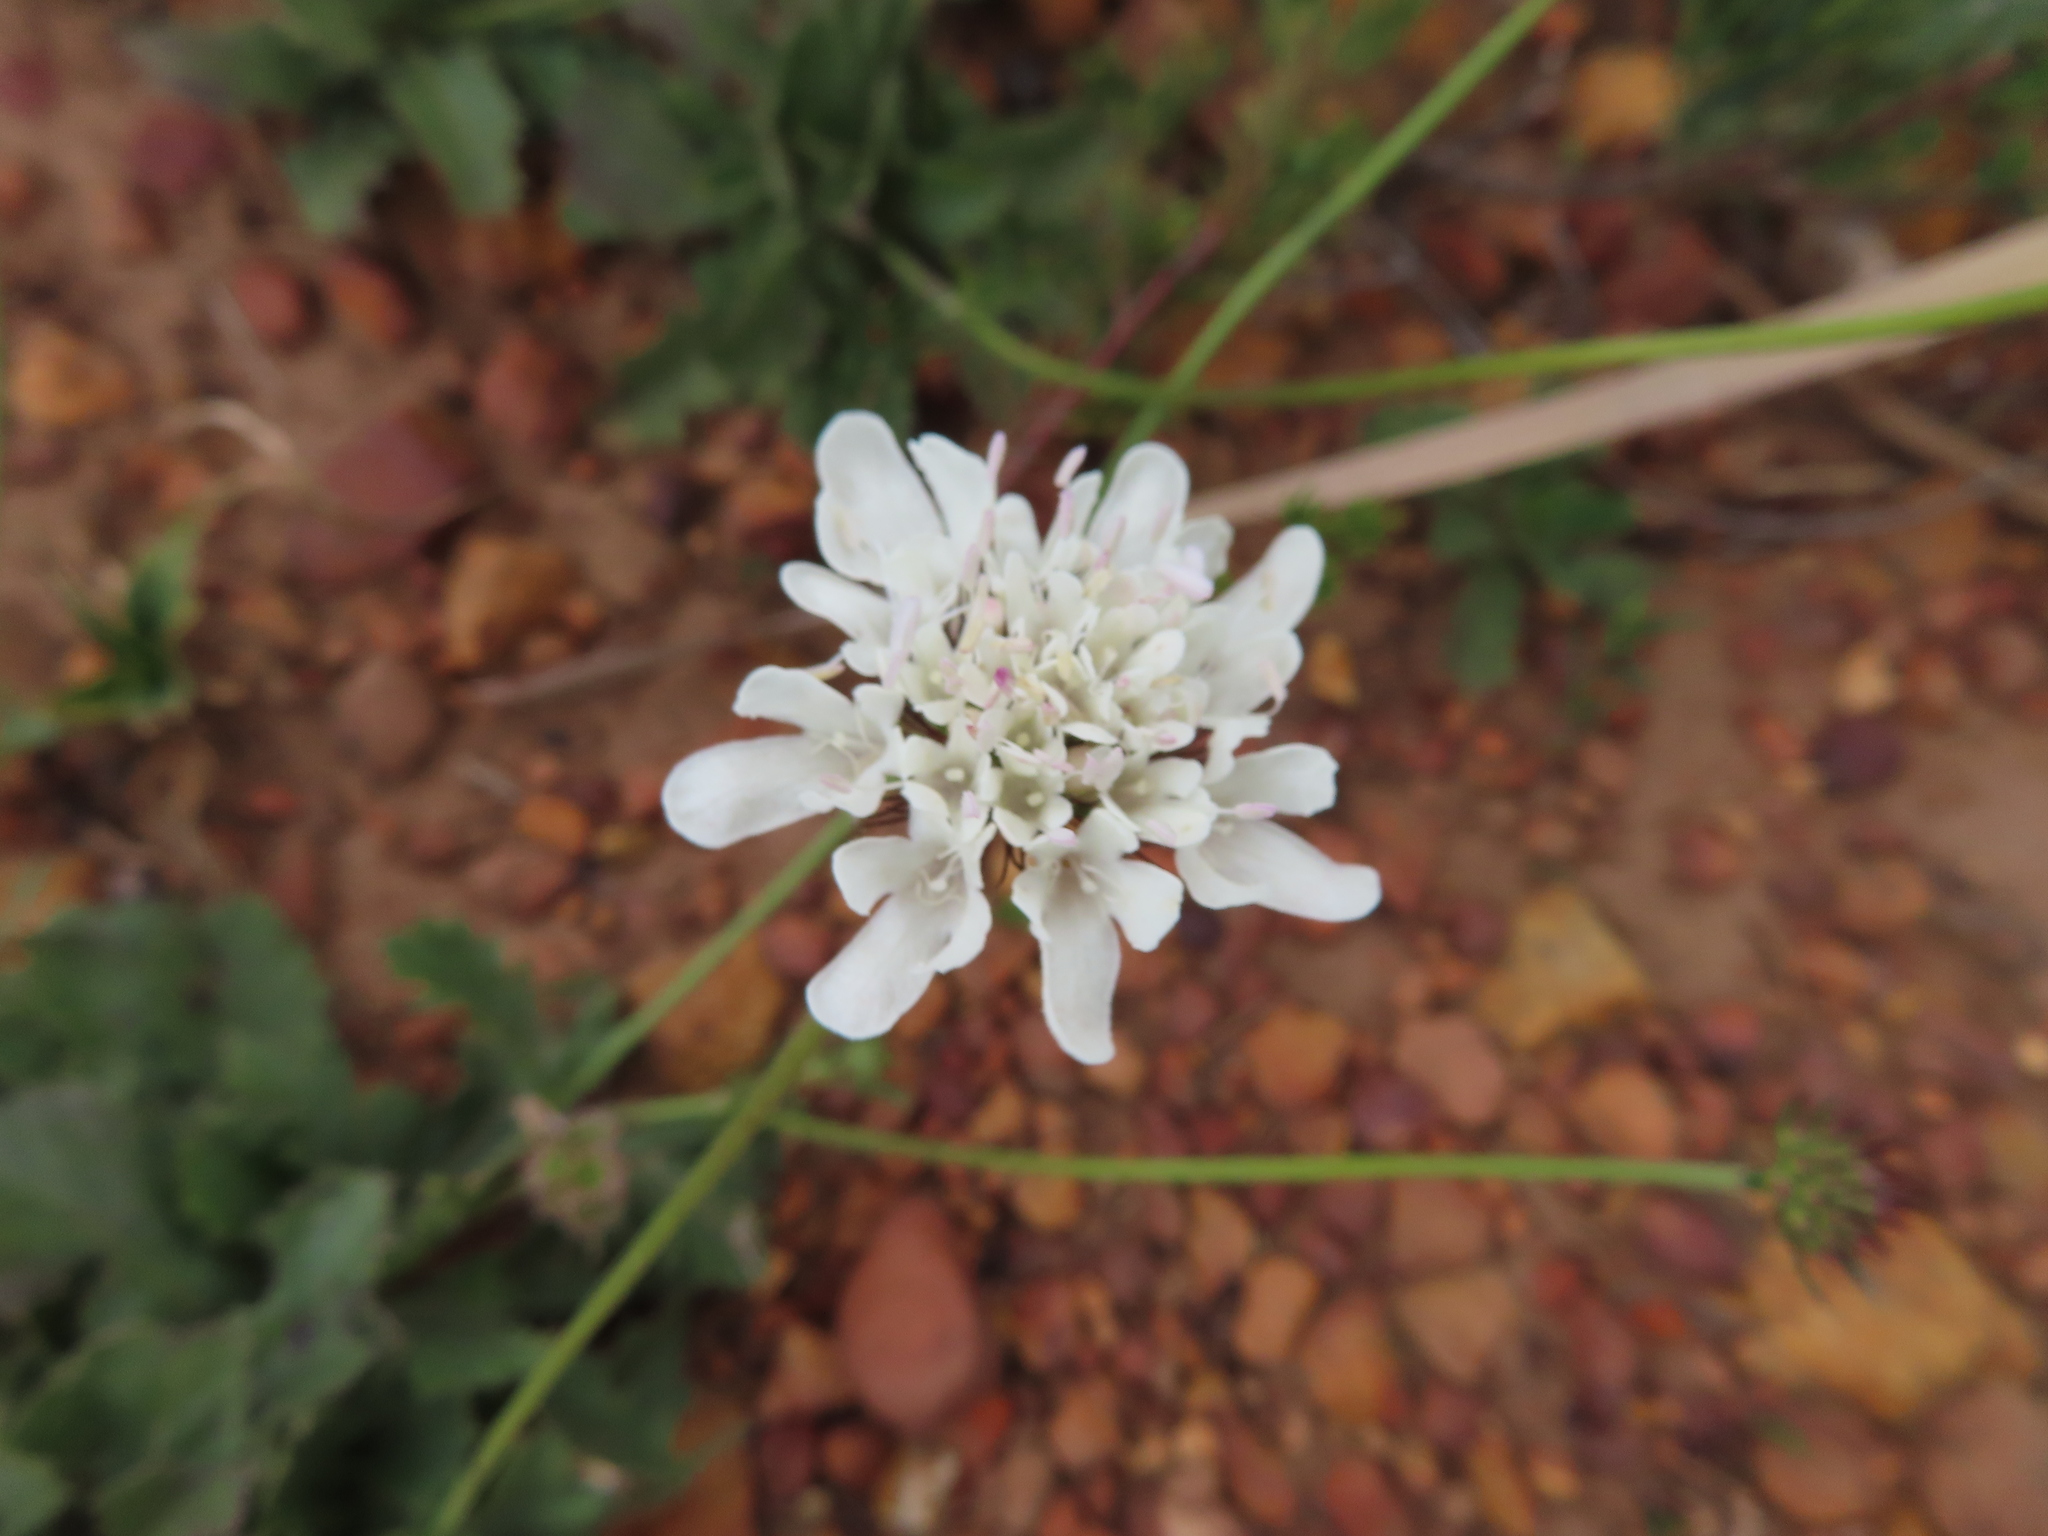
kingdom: Plantae
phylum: Tracheophyta
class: Magnoliopsida
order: Dipsacales
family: Caprifoliaceae
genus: Scabiosa
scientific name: Scabiosa columbaria
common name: Small scabious
